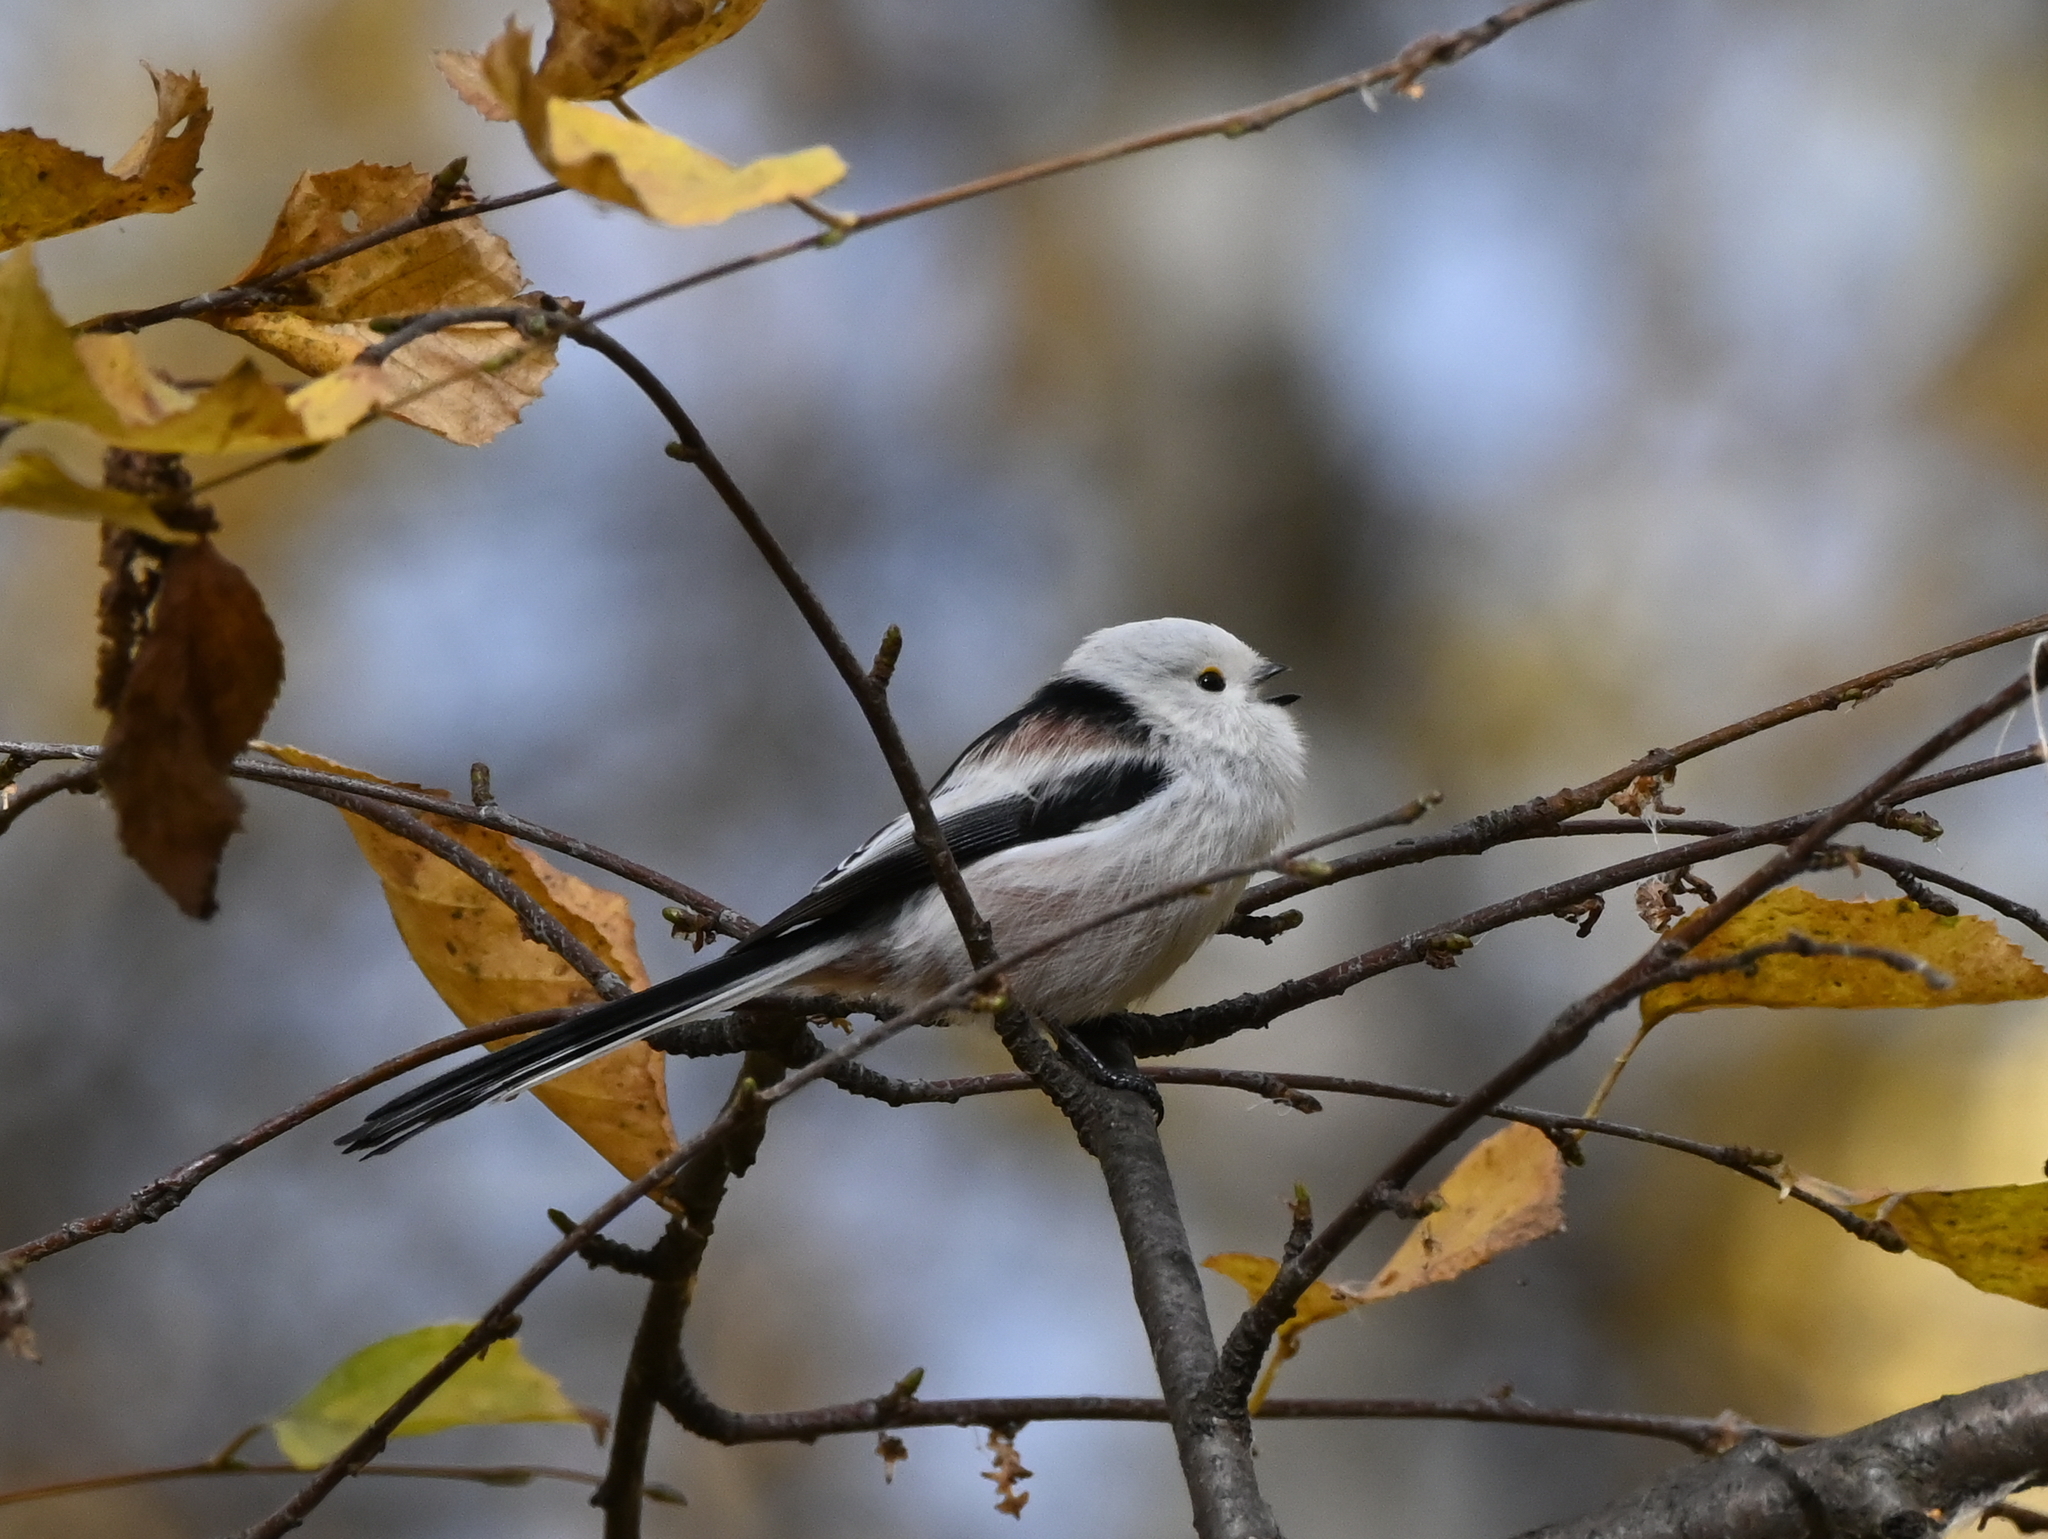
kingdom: Animalia
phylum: Chordata
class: Aves
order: Passeriformes
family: Aegithalidae
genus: Aegithalos
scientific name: Aegithalos caudatus
